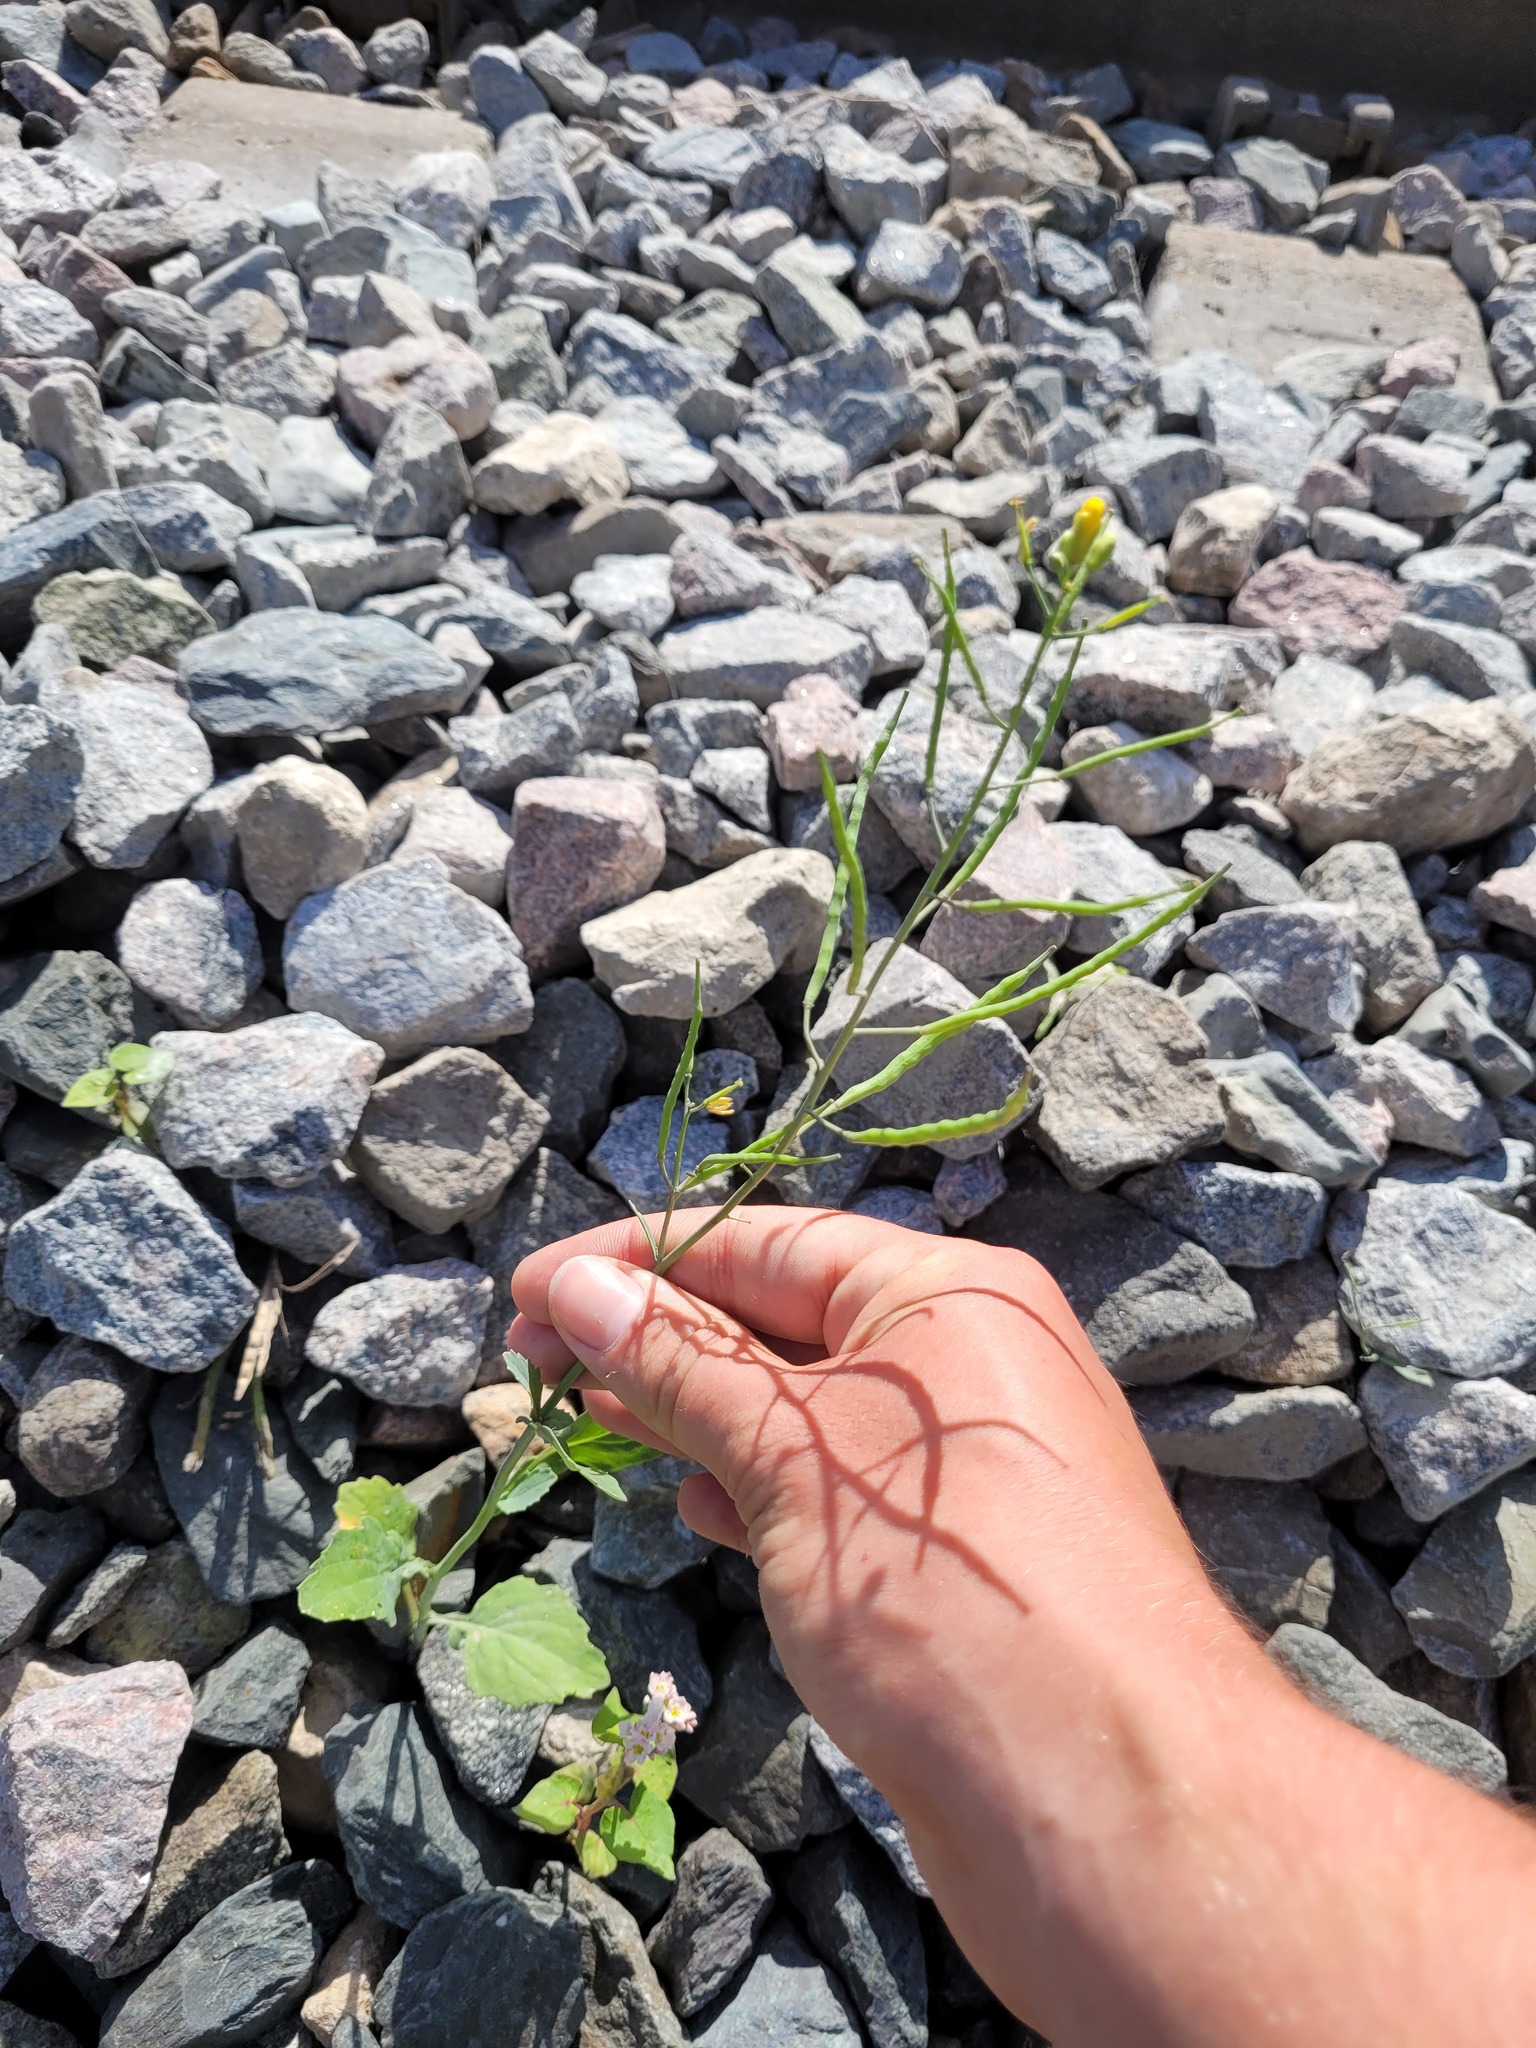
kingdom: Plantae
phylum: Tracheophyta
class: Magnoliopsida
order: Brassicales
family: Brassicaceae
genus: Brassica
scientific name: Brassica napus
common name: Rape
